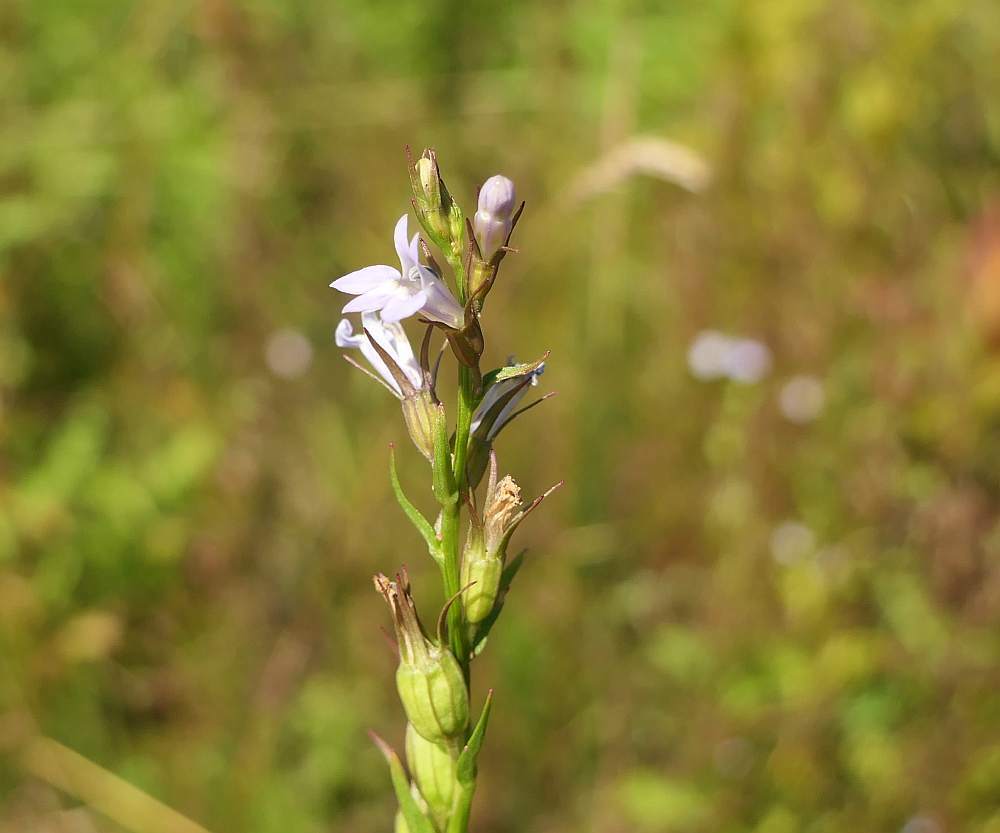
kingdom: Plantae
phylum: Tracheophyta
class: Magnoliopsida
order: Asterales
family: Campanulaceae
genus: Lobelia
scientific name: Lobelia inflata
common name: Indian tobacco
